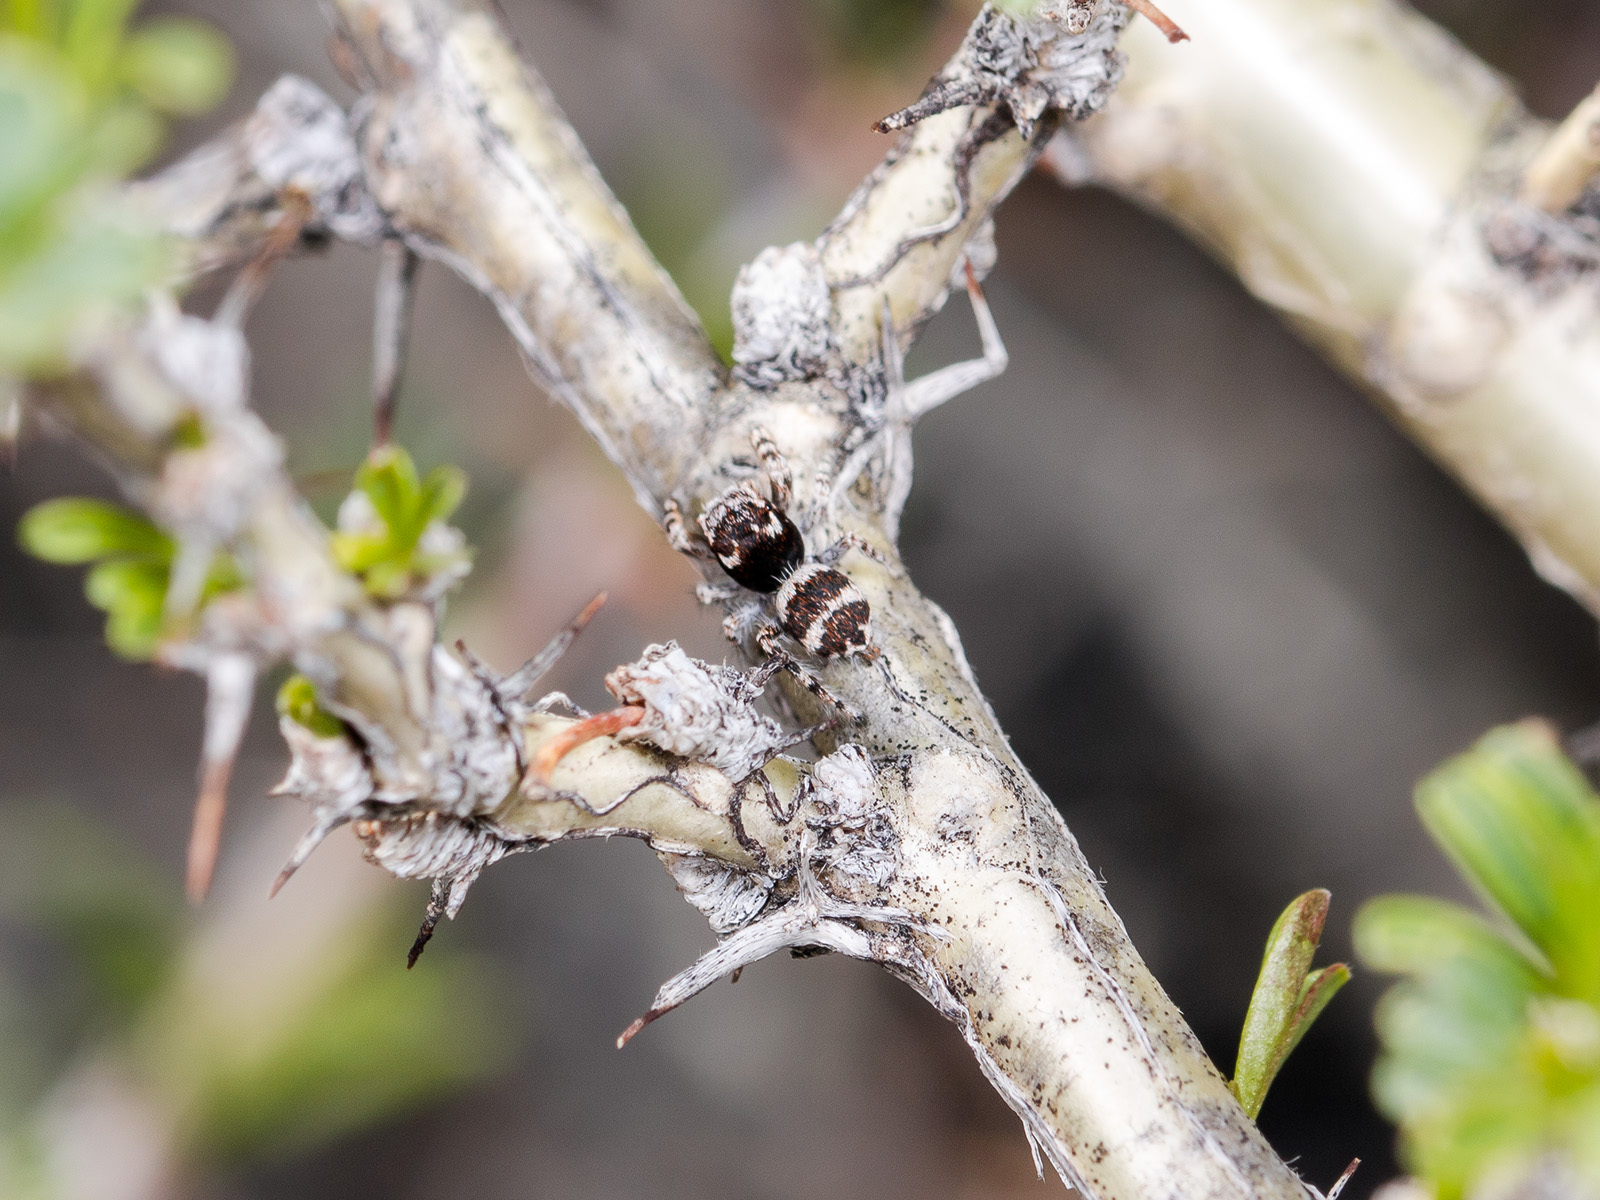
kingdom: Animalia
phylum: Arthropoda
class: Arachnida
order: Araneae
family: Salticidae
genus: Pseudomogrus
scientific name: Pseudomogrus albocinctus
